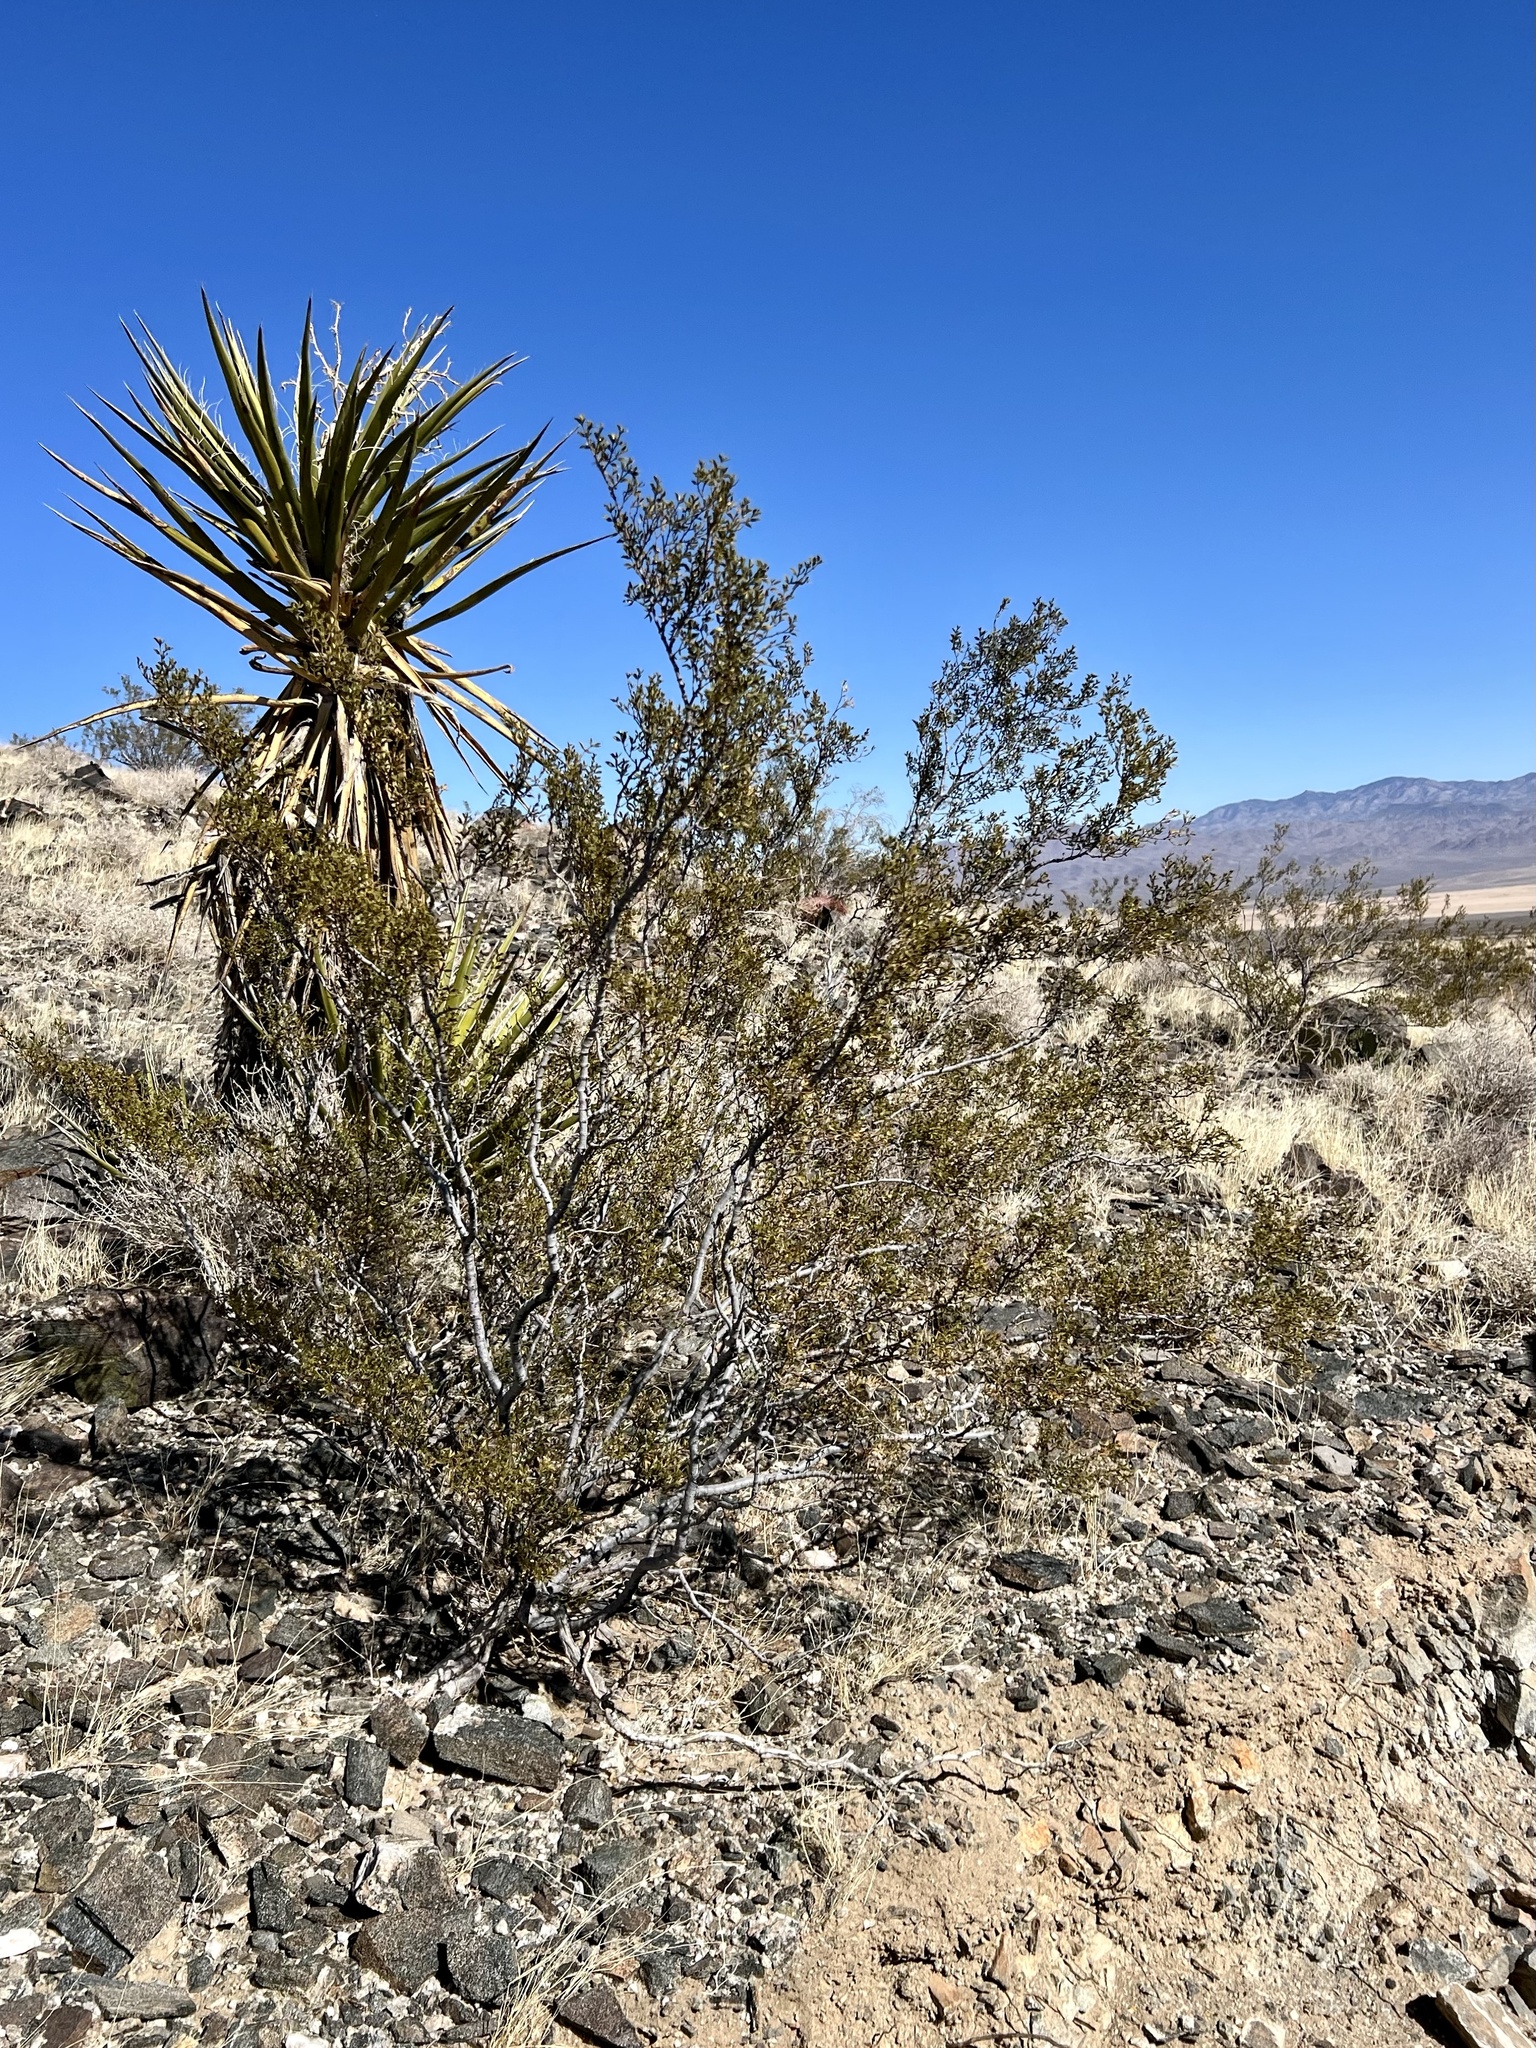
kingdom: Plantae
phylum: Tracheophyta
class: Magnoliopsida
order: Zygophyllales
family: Zygophyllaceae
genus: Larrea
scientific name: Larrea tridentata
